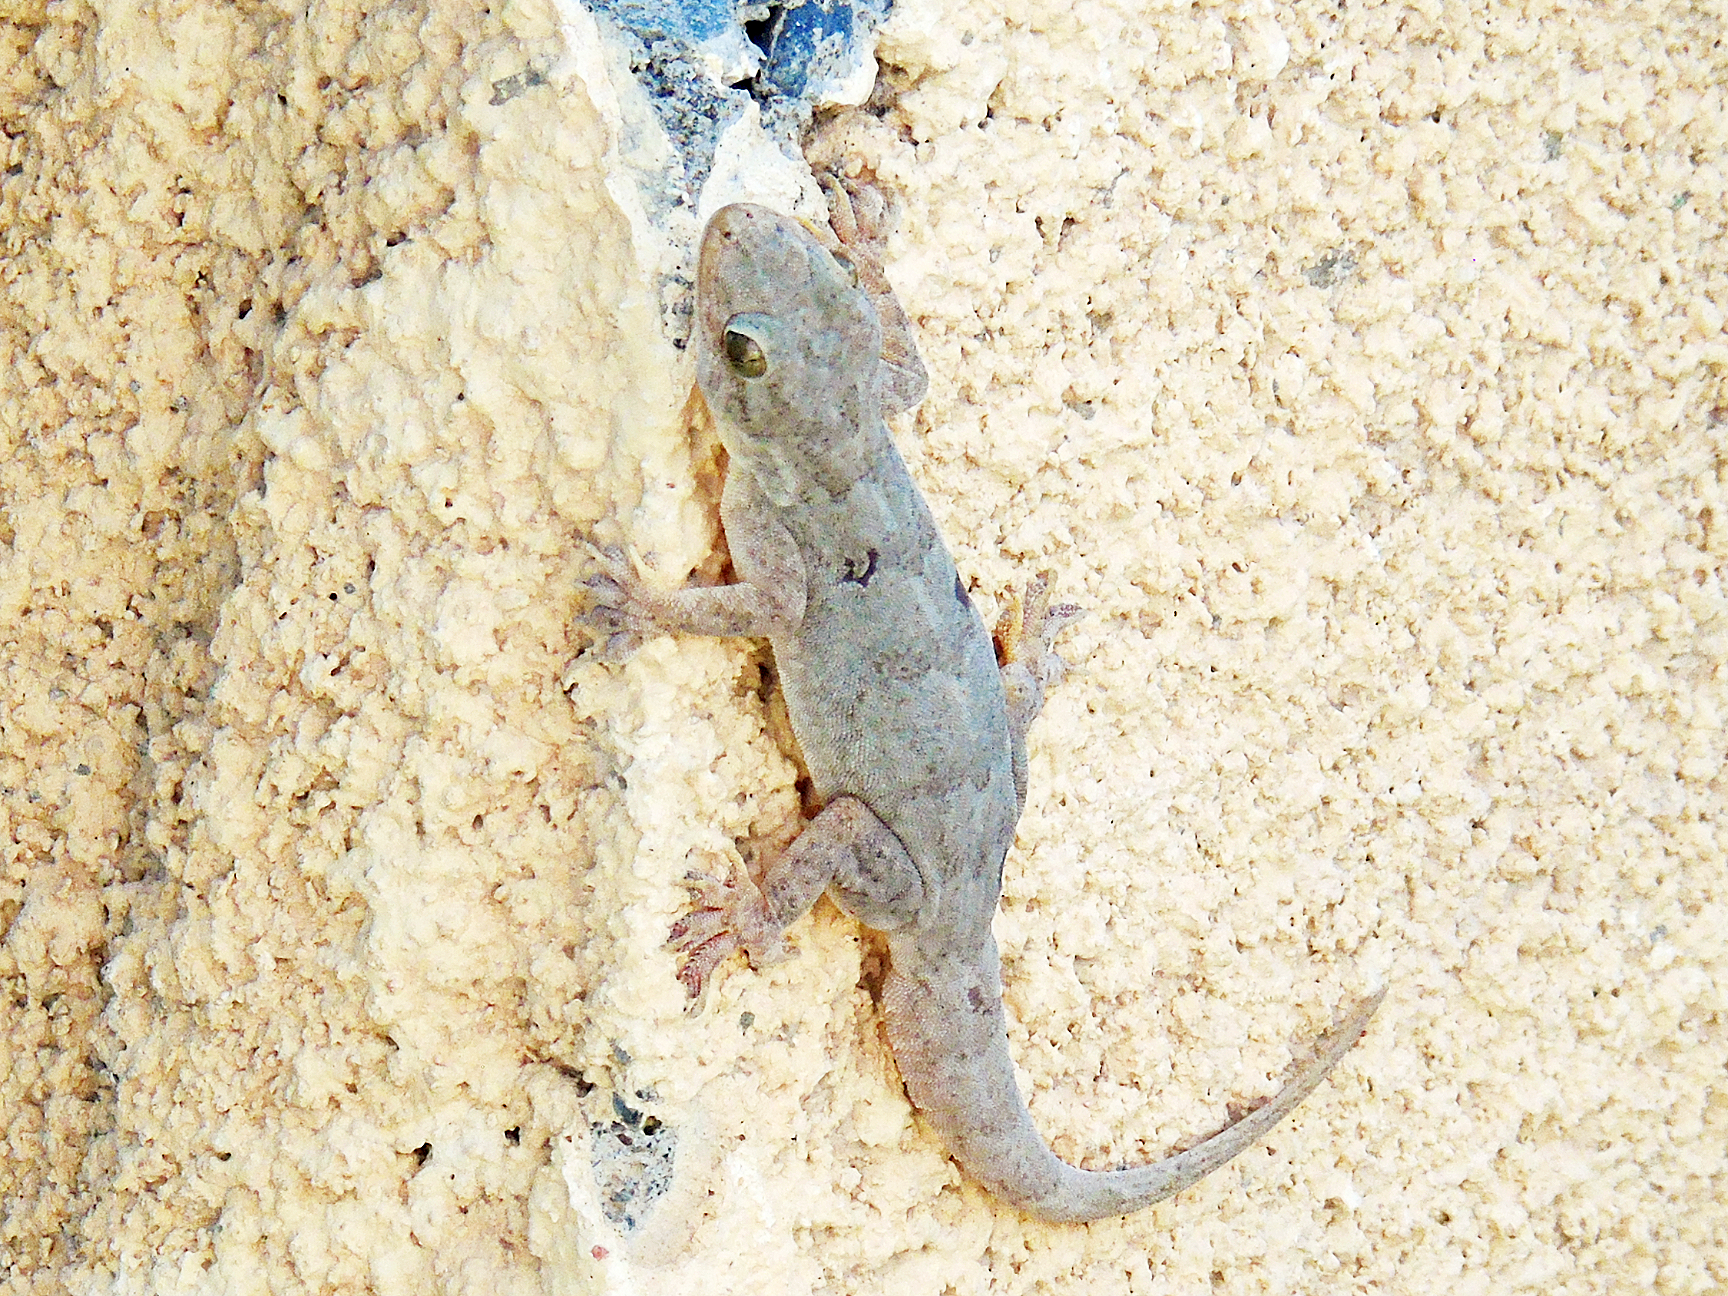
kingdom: Animalia
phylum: Chordata
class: Squamata
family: Gekkonidae
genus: Hemidactylus
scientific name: Hemidactylus flaviviridis
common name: Northern house gecko
